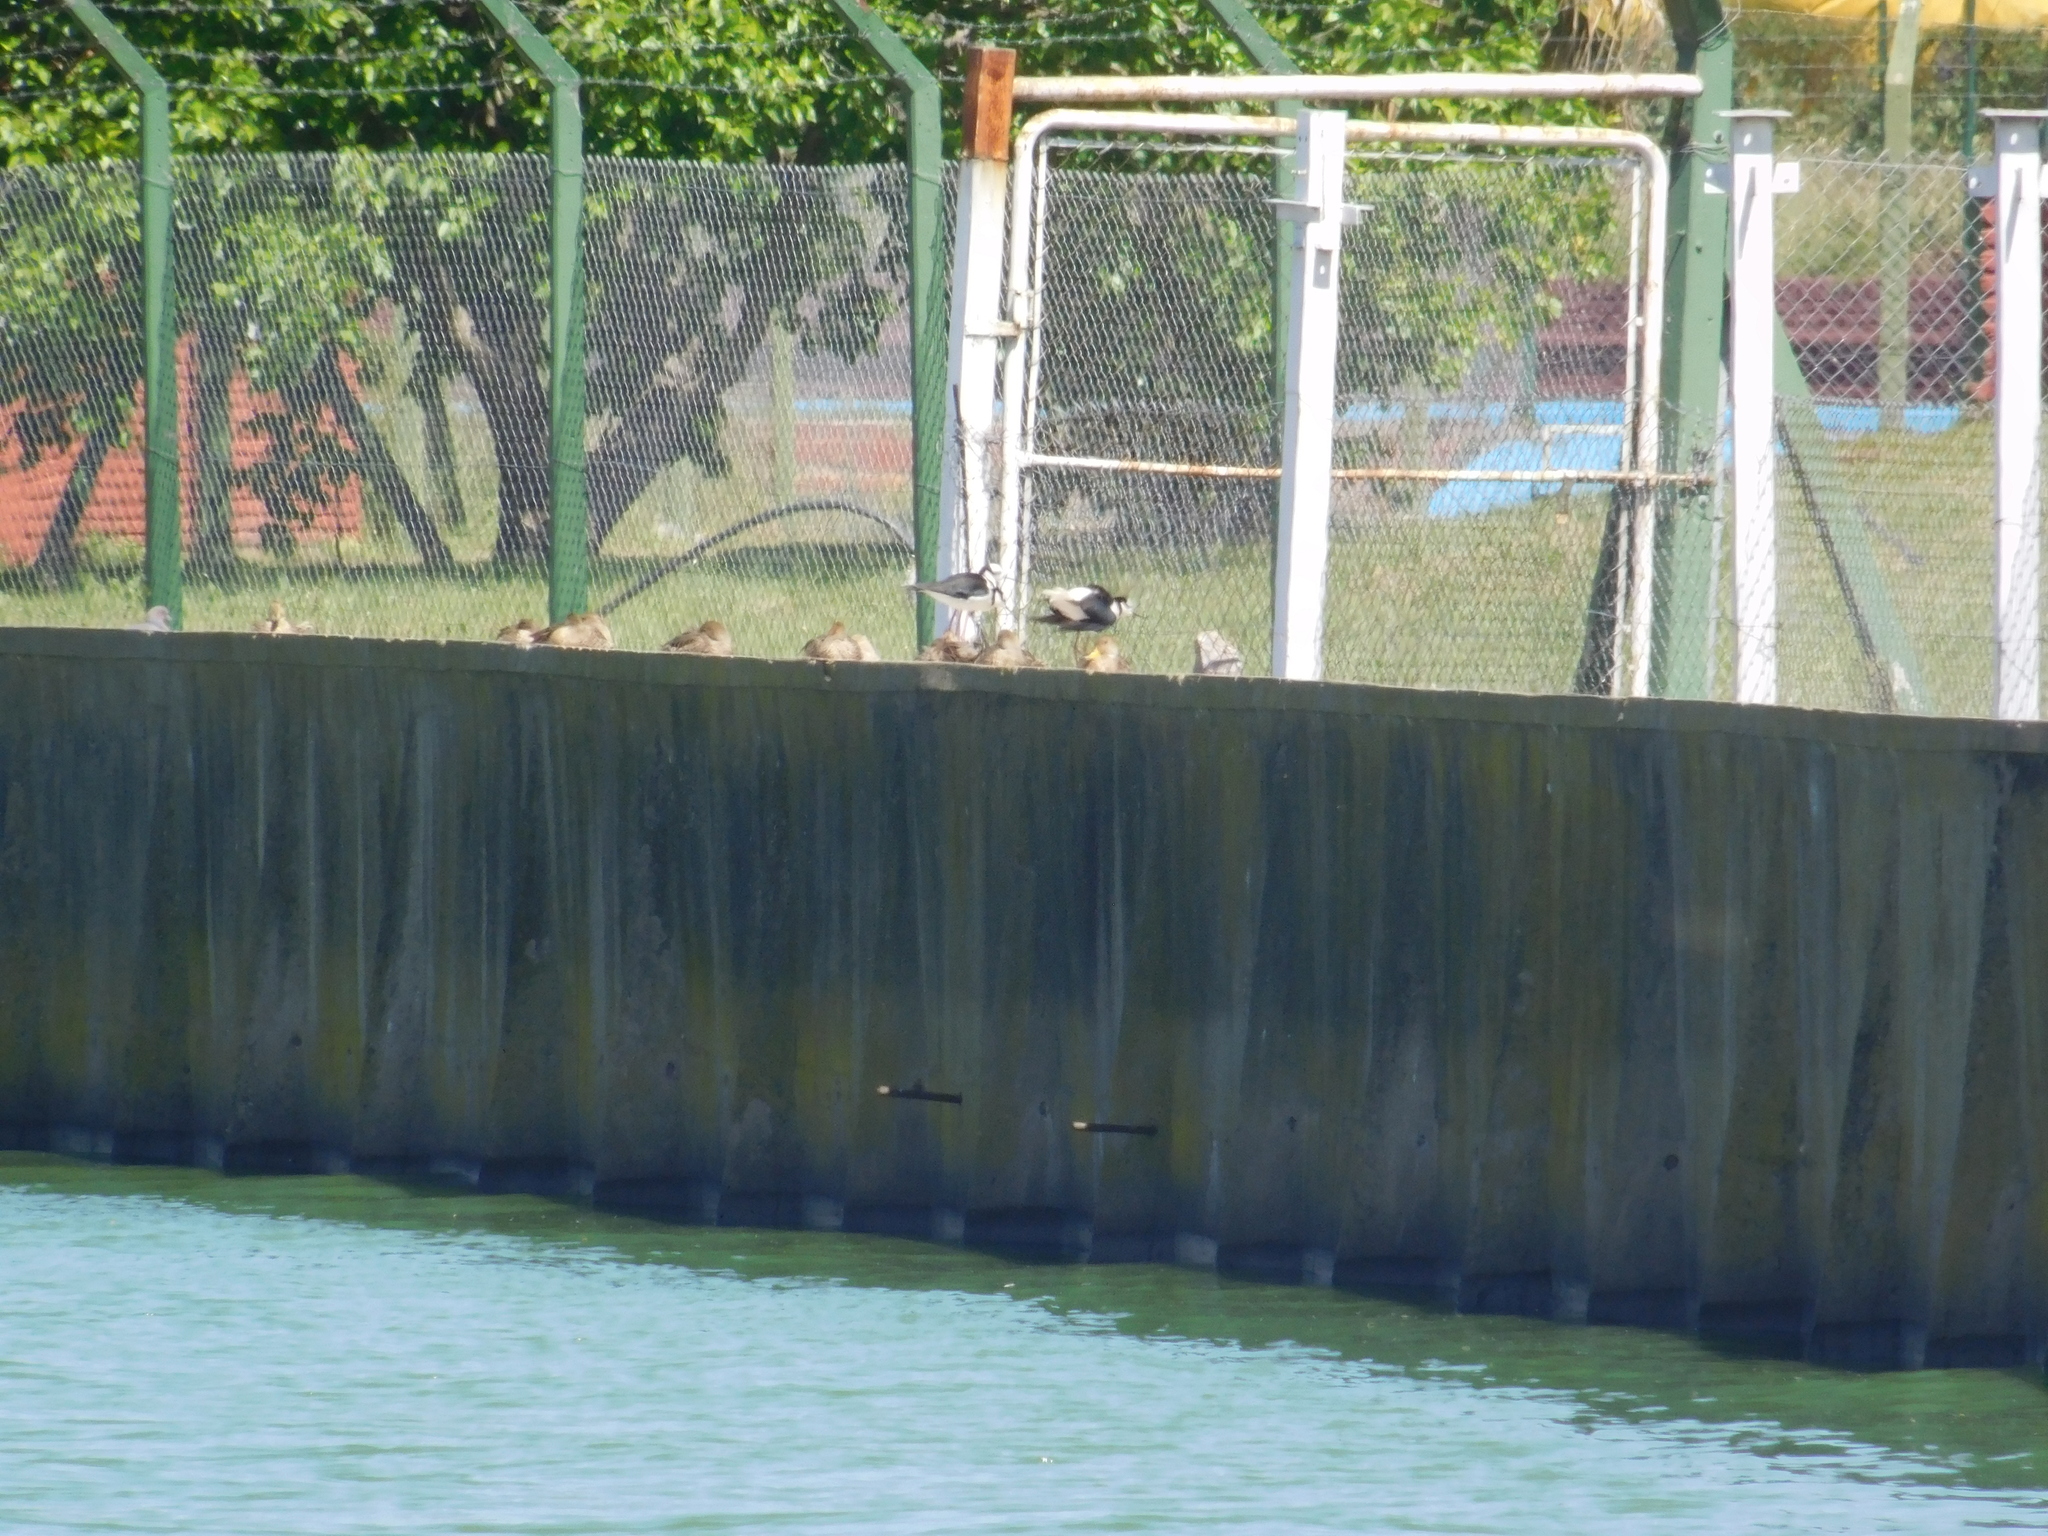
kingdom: Animalia
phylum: Chordata
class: Aves
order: Charadriiformes
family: Recurvirostridae
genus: Himantopus
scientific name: Himantopus mexicanus
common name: Black-necked stilt
